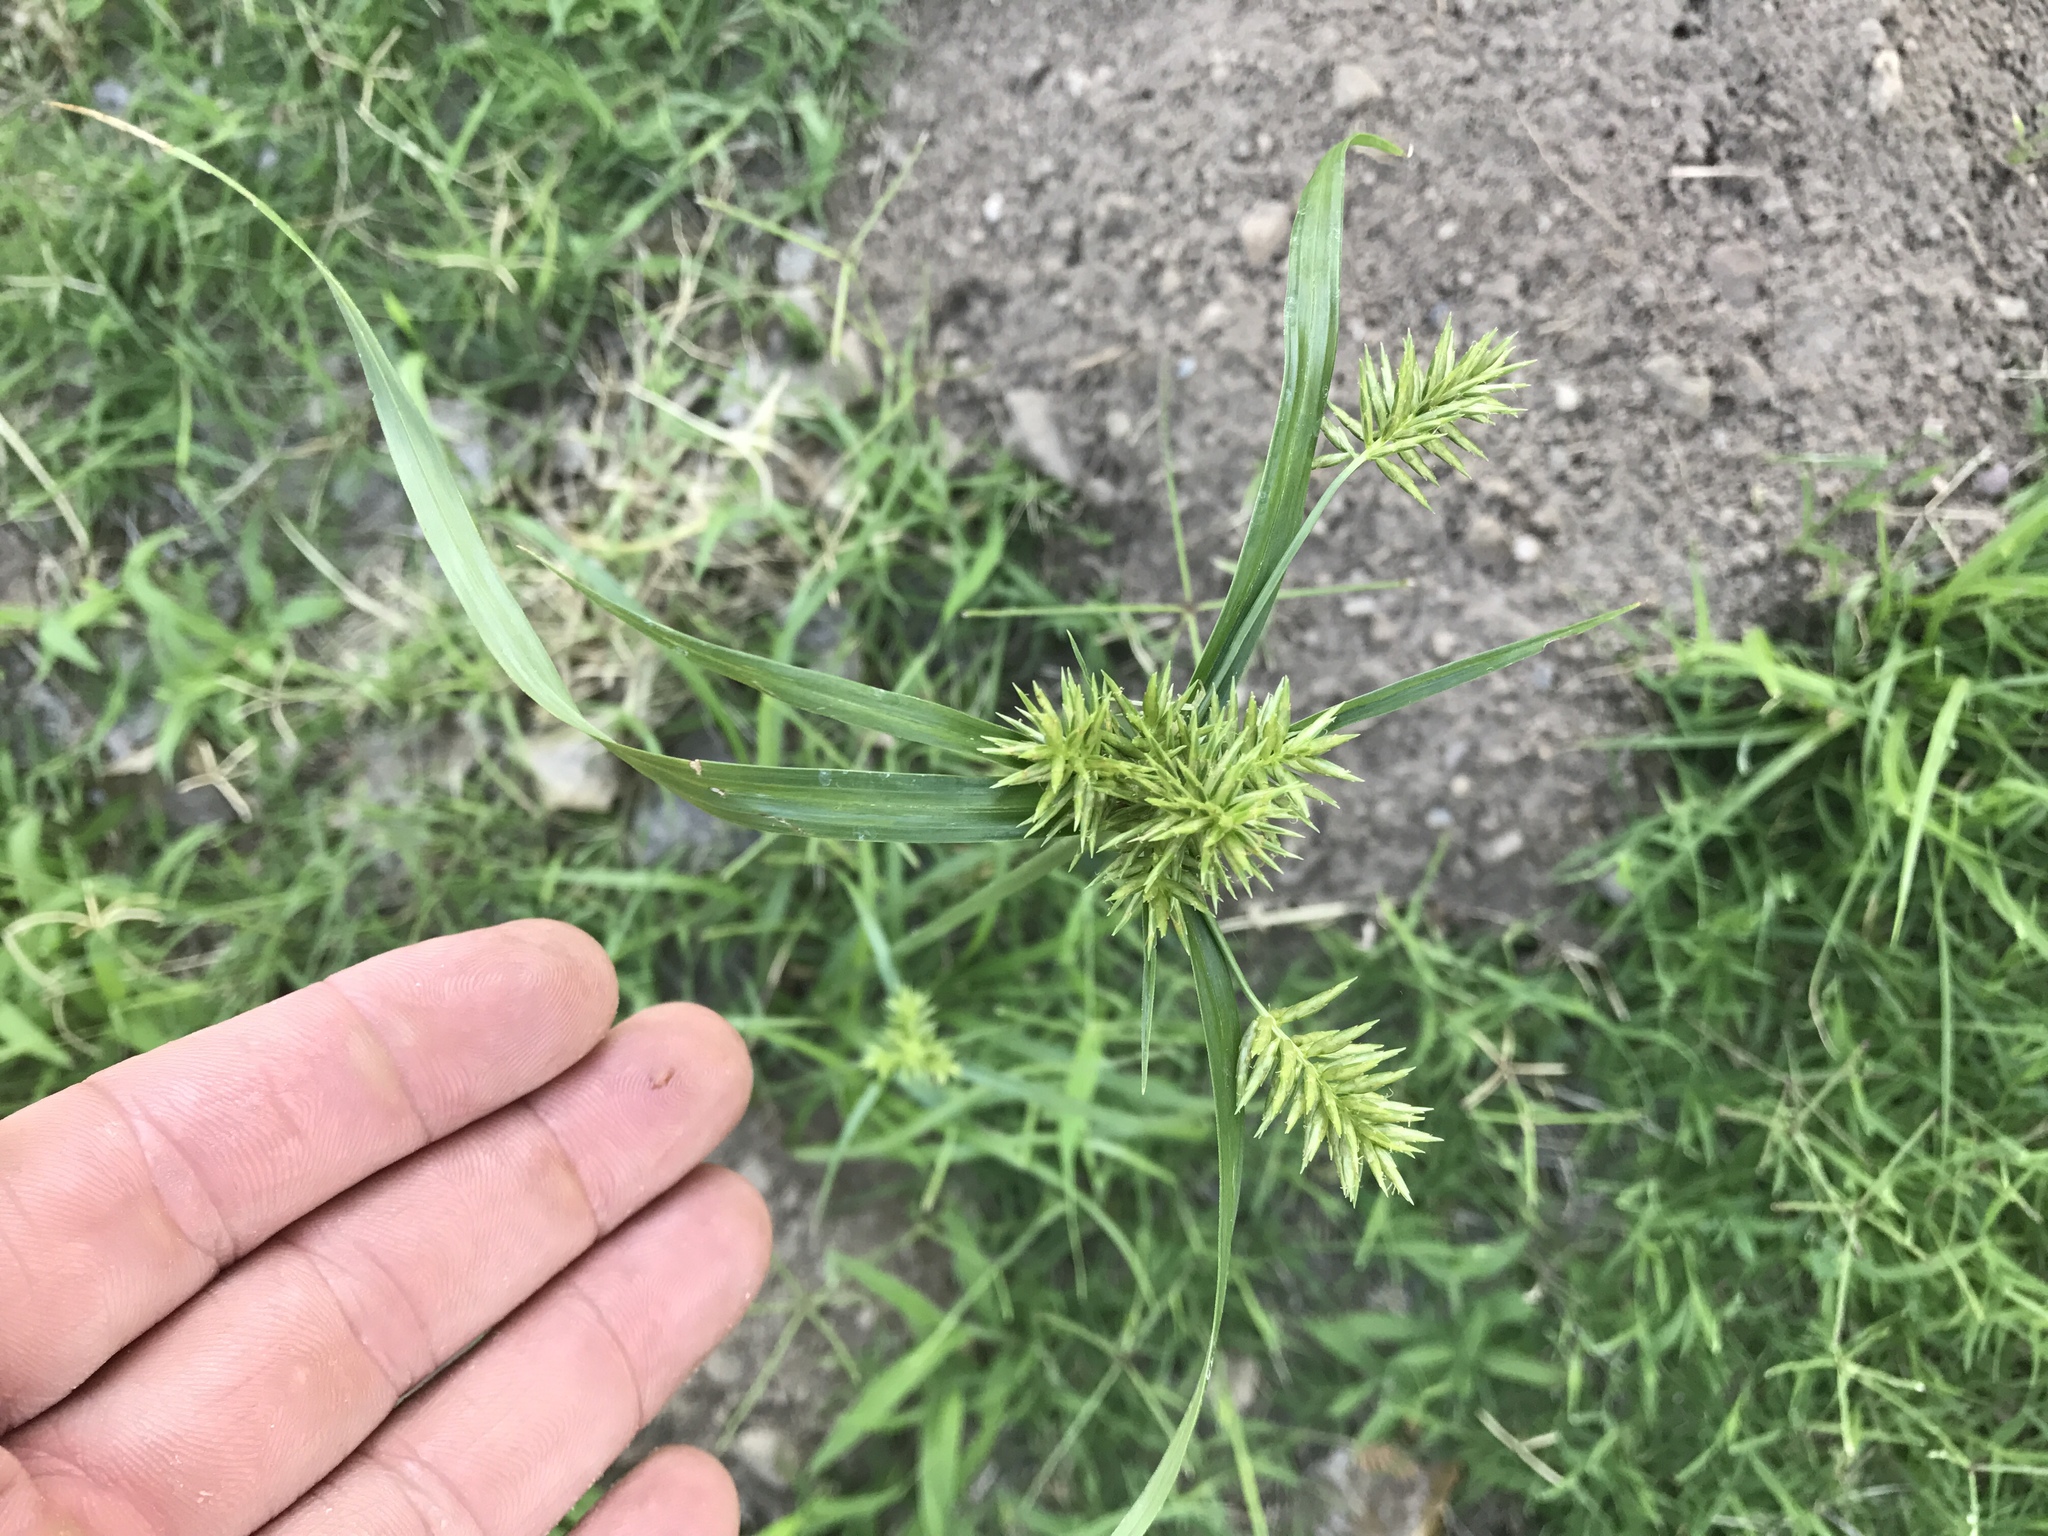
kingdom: Plantae
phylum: Tracheophyta
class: Liliopsida
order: Poales
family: Cyperaceae
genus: Cyperus
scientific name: Cyperus pallidicolor
